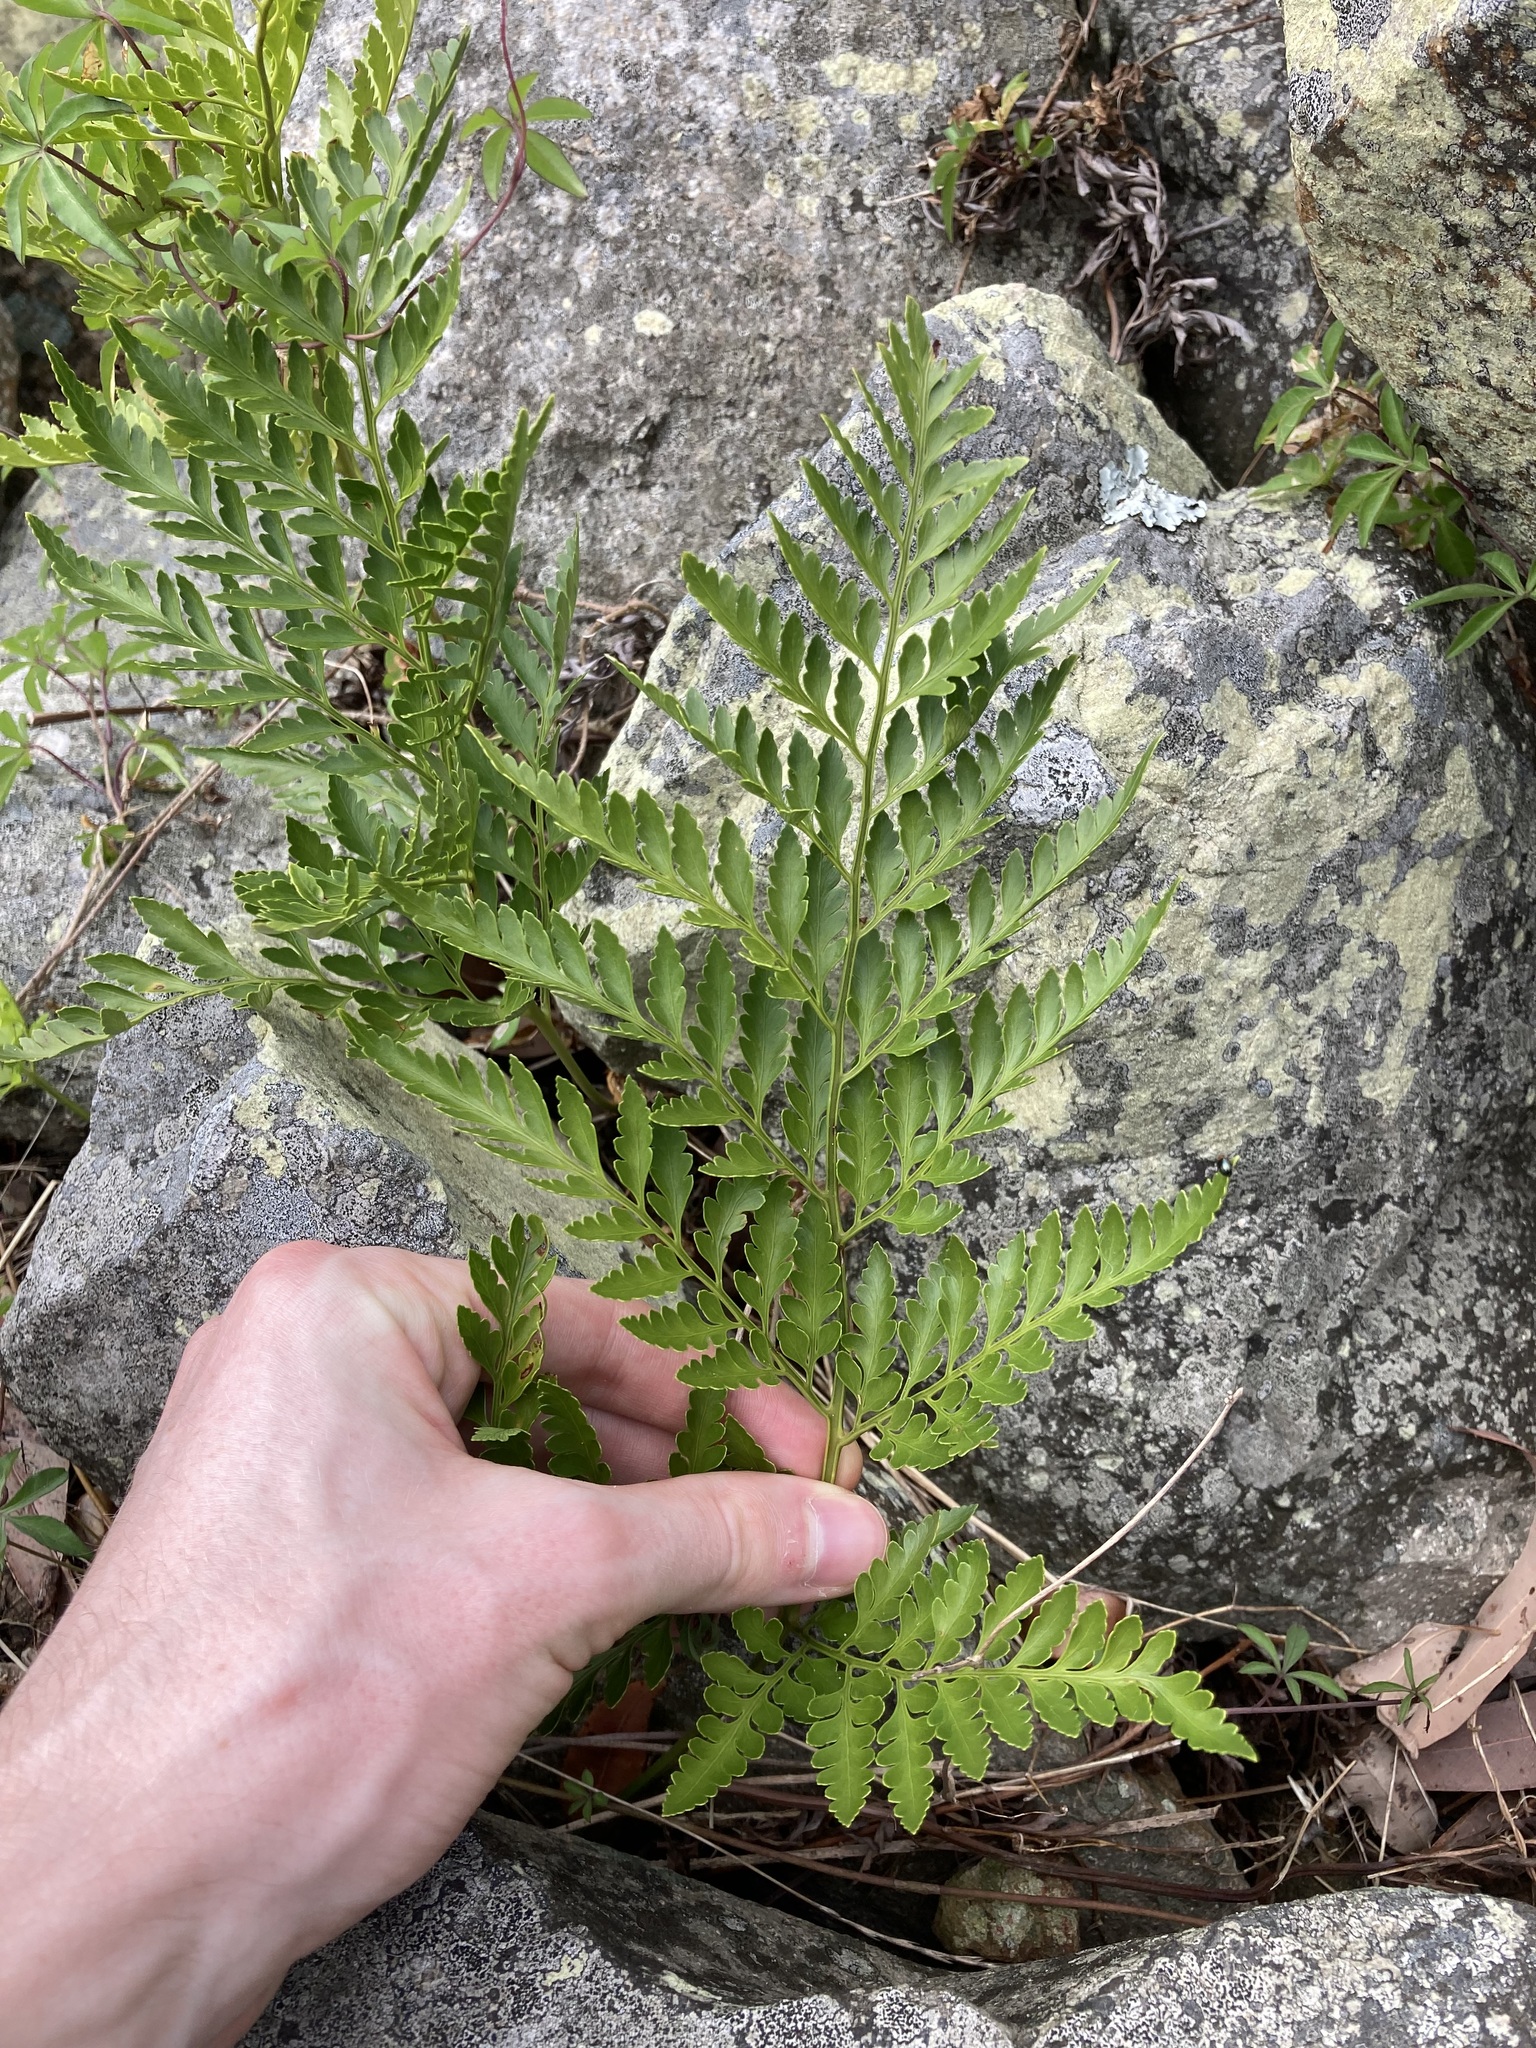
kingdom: Plantae
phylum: Tracheophyta
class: Polypodiopsida
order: Polypodiales
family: Davalliaceae
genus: Davallia
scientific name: Davallia pyxidata
